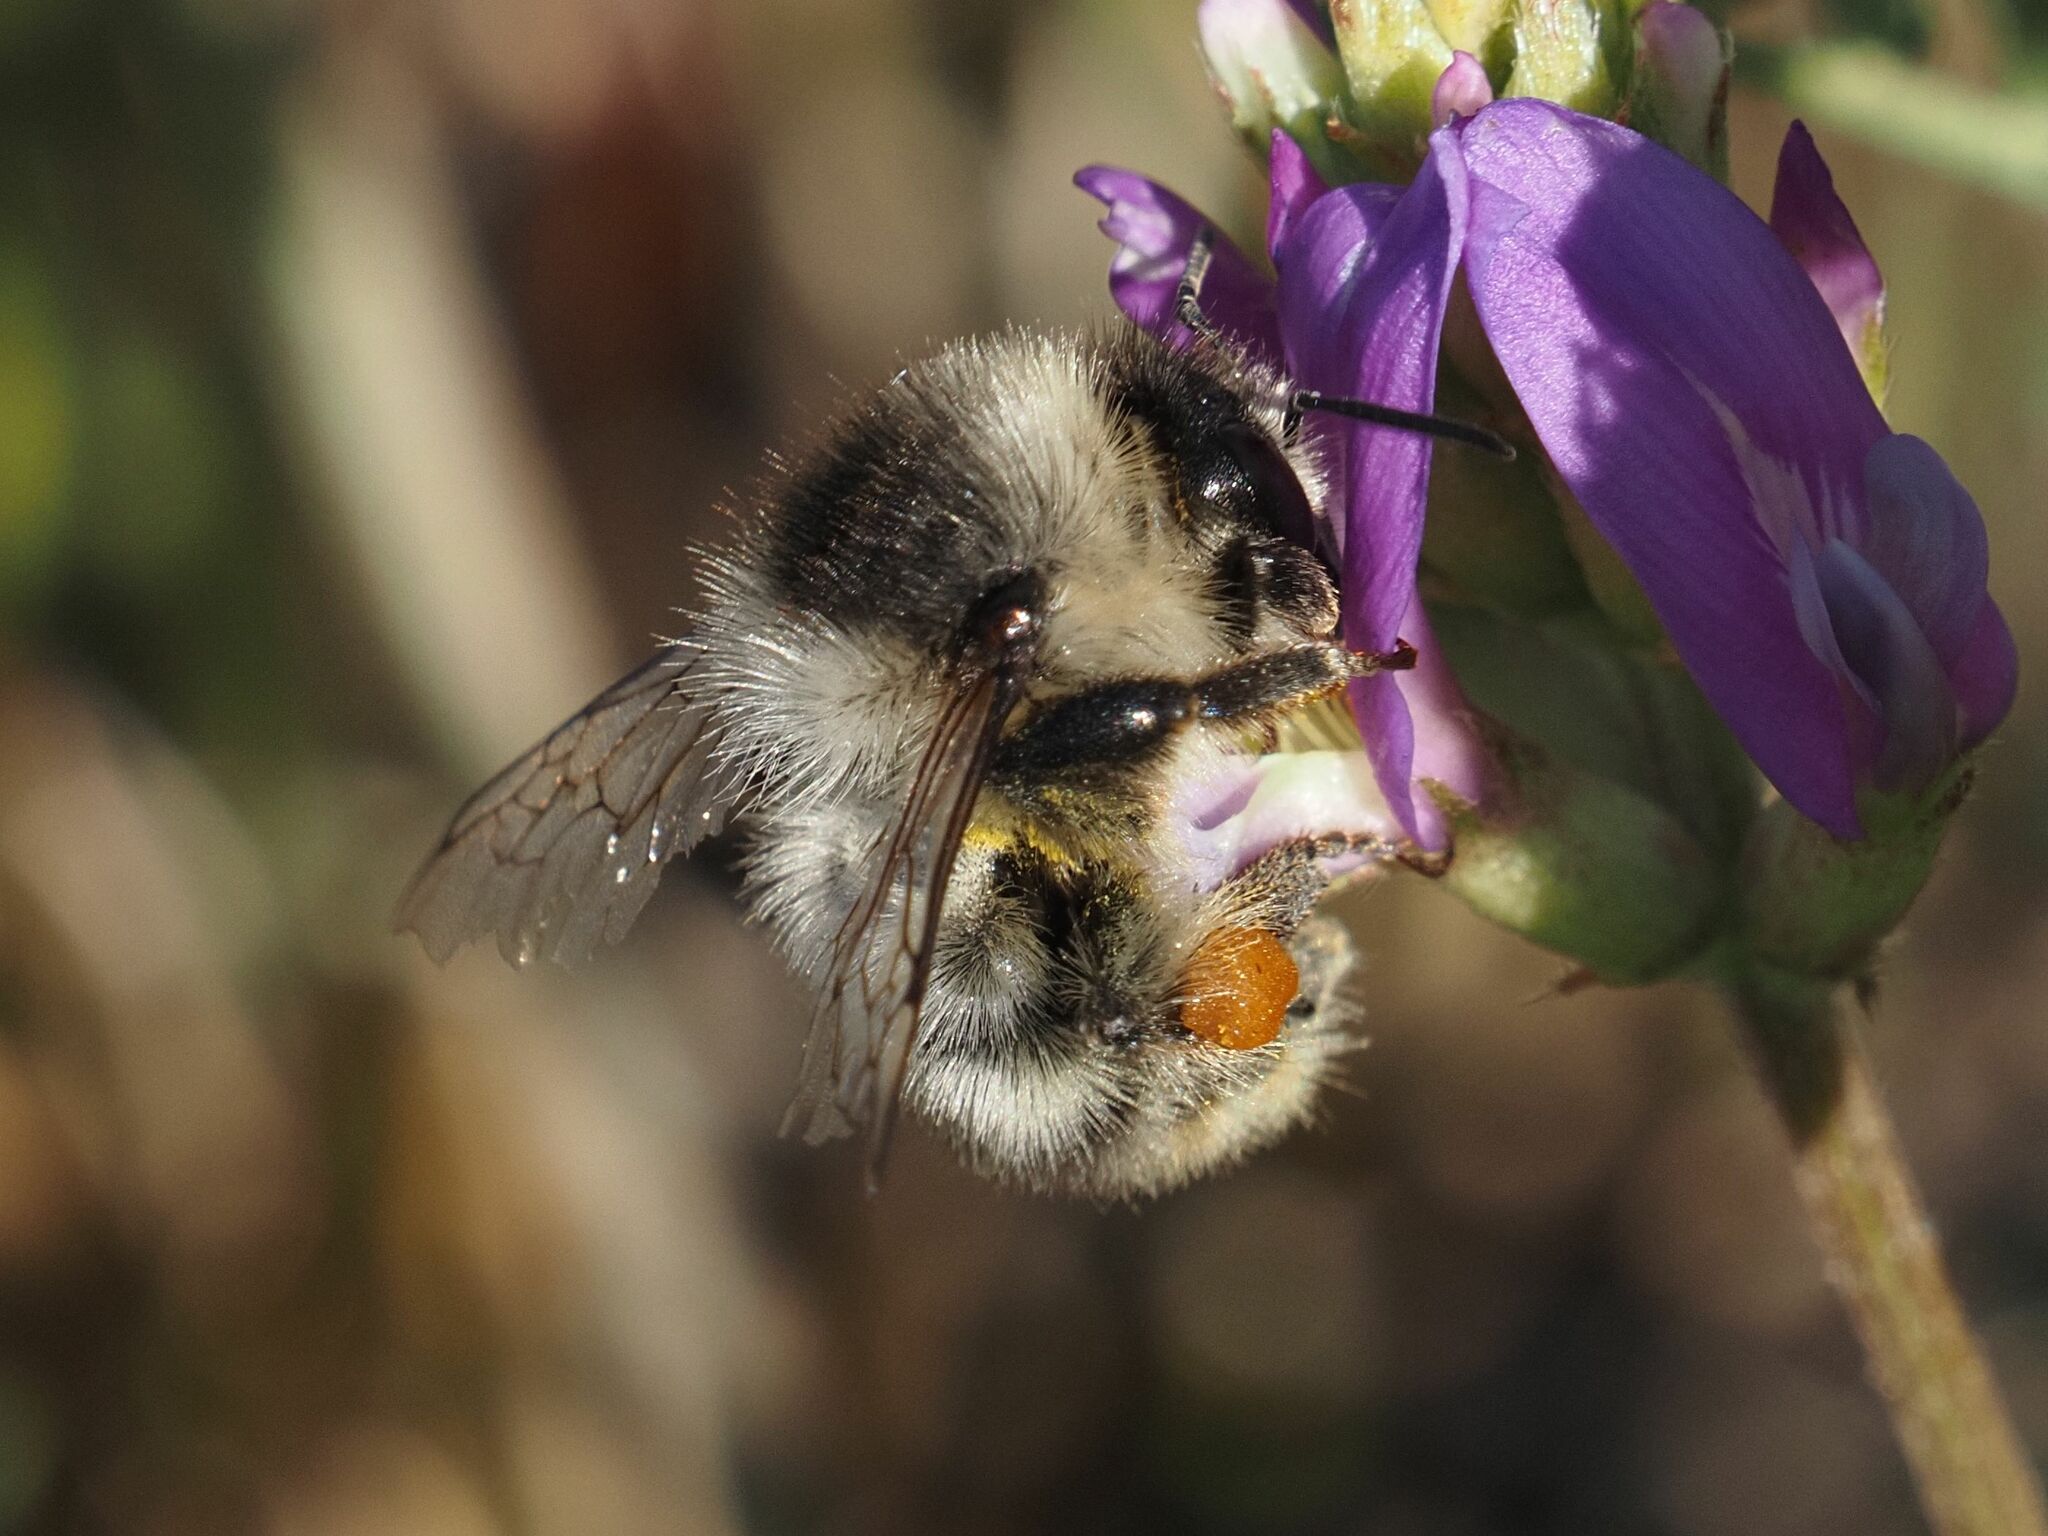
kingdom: Animalia
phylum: Arthropoda
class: Insecta
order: Hymenoptera
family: Apidae
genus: Bombus
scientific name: Bombus sylvarum
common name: Shrill carder bee
